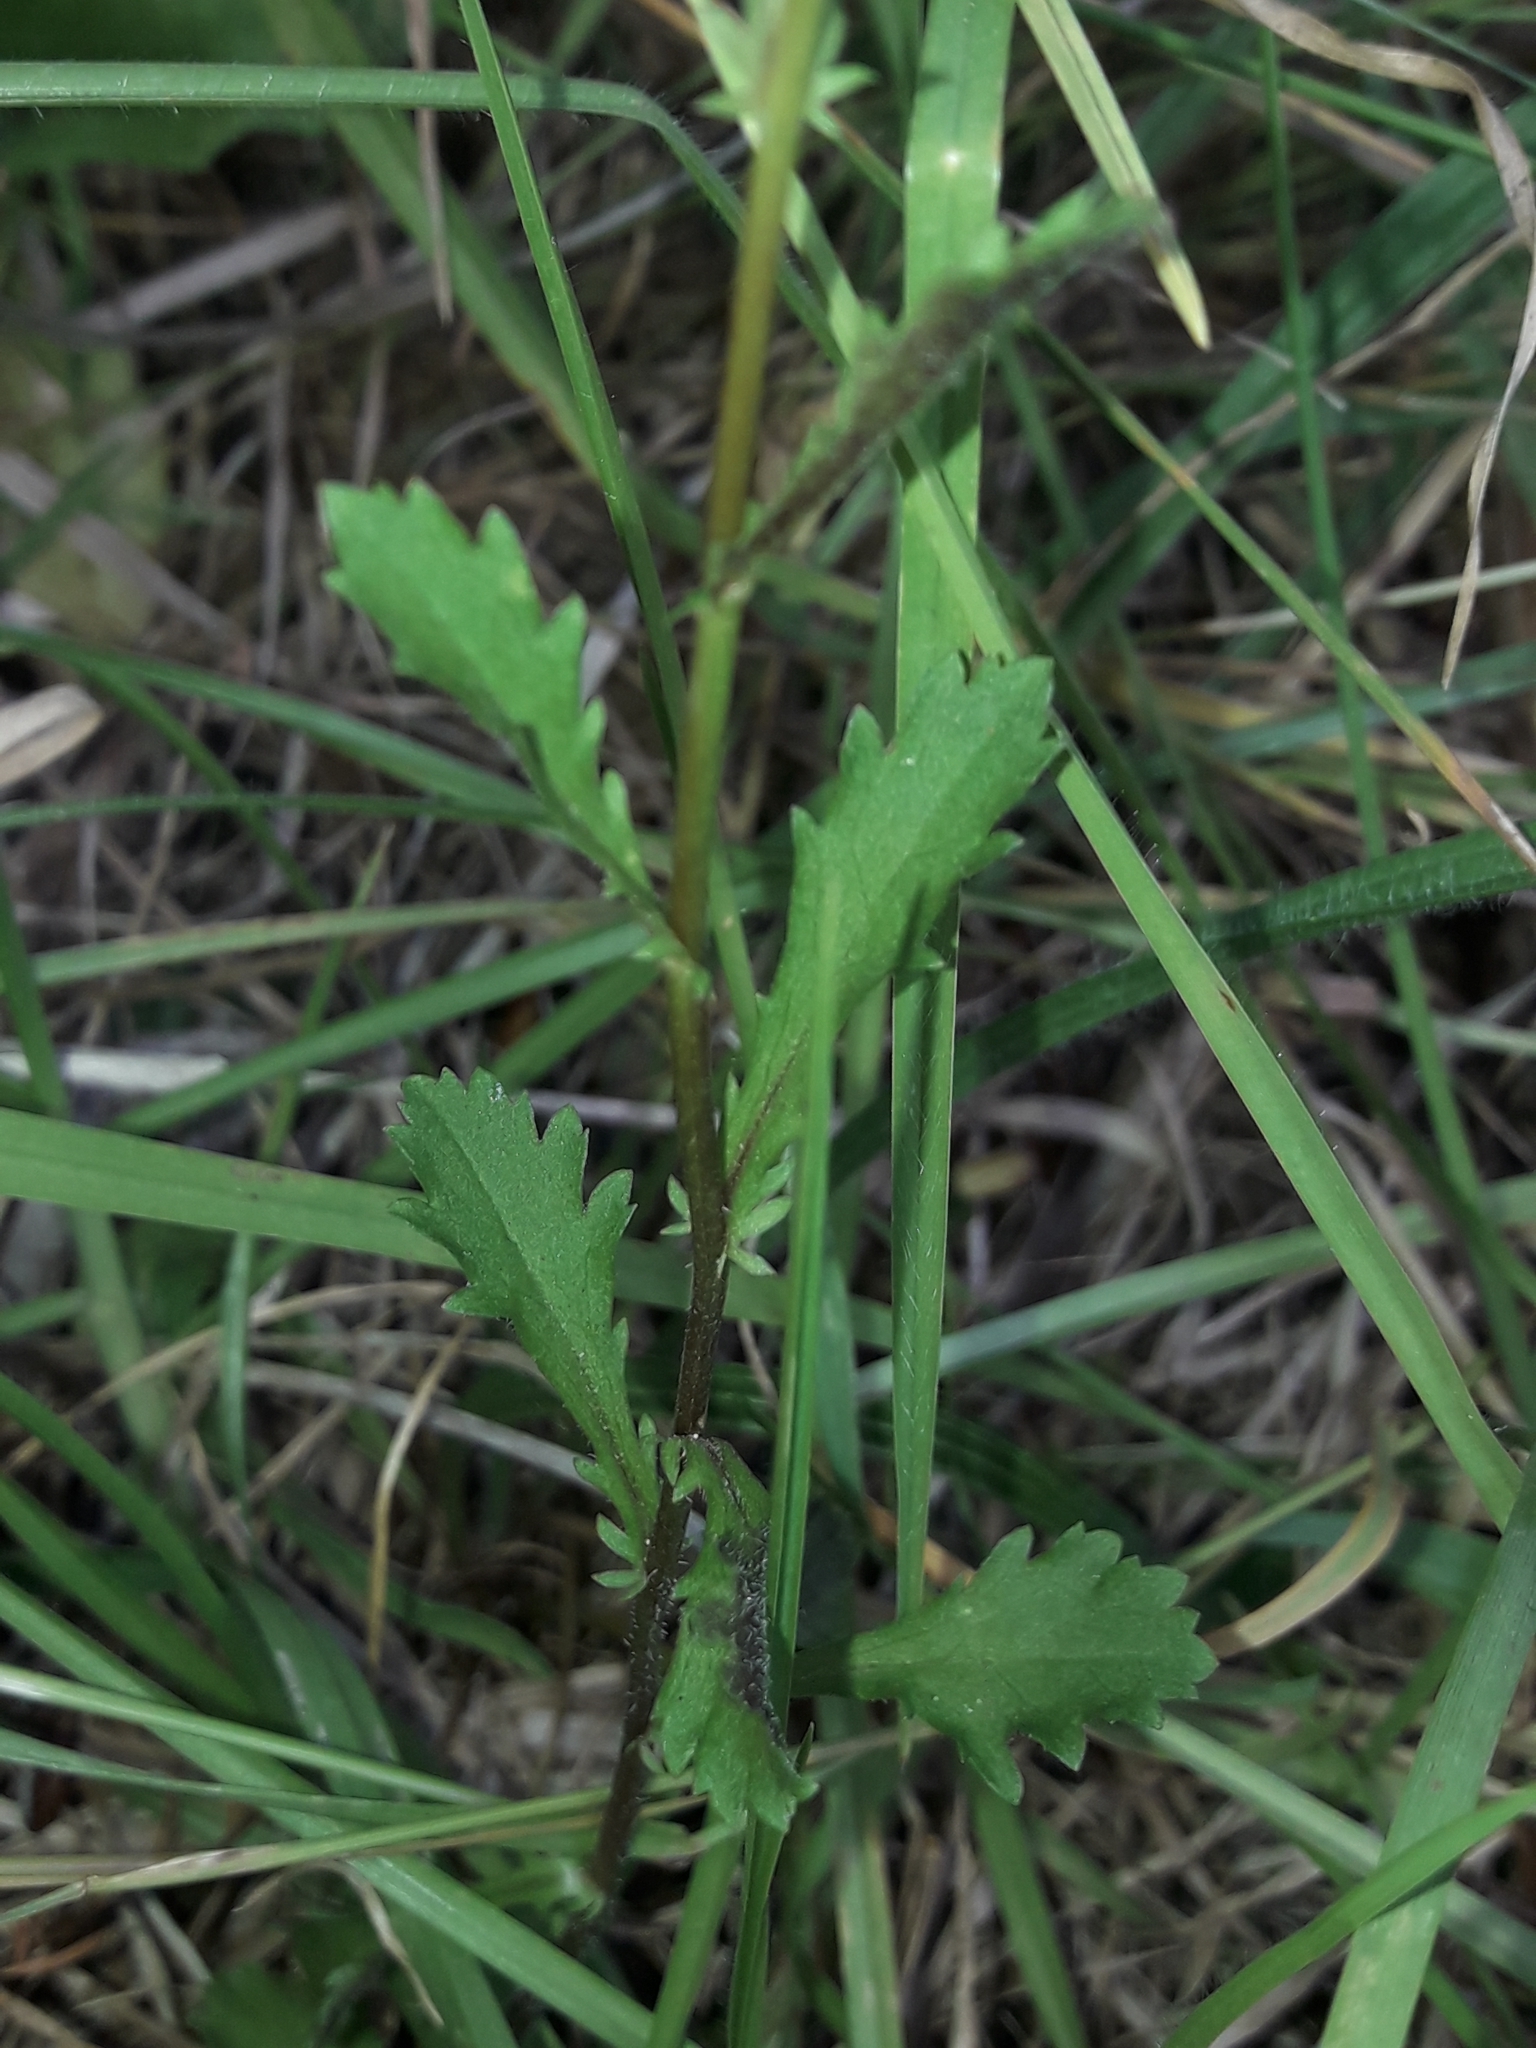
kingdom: Plantae
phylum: Tracheophyta
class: Magnoliopsida
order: Asterales
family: Asteraceae
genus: Leucanthemum
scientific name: Leucanthemum vulgare
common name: Oxeye daisy
